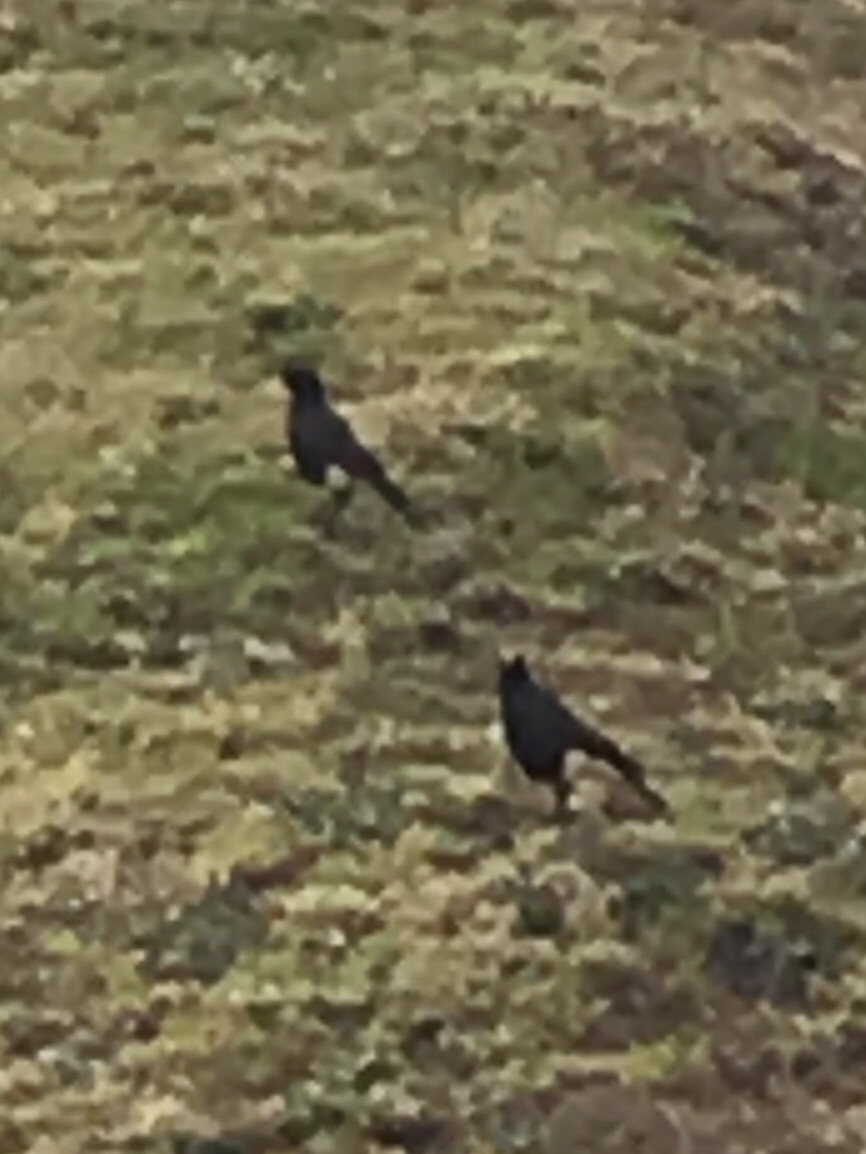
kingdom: Animalia
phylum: Chordata
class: Aves
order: Passeriformes
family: Sturnidae
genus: Lamprotornis
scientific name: Lamprotornis bicolor
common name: Pied starling
